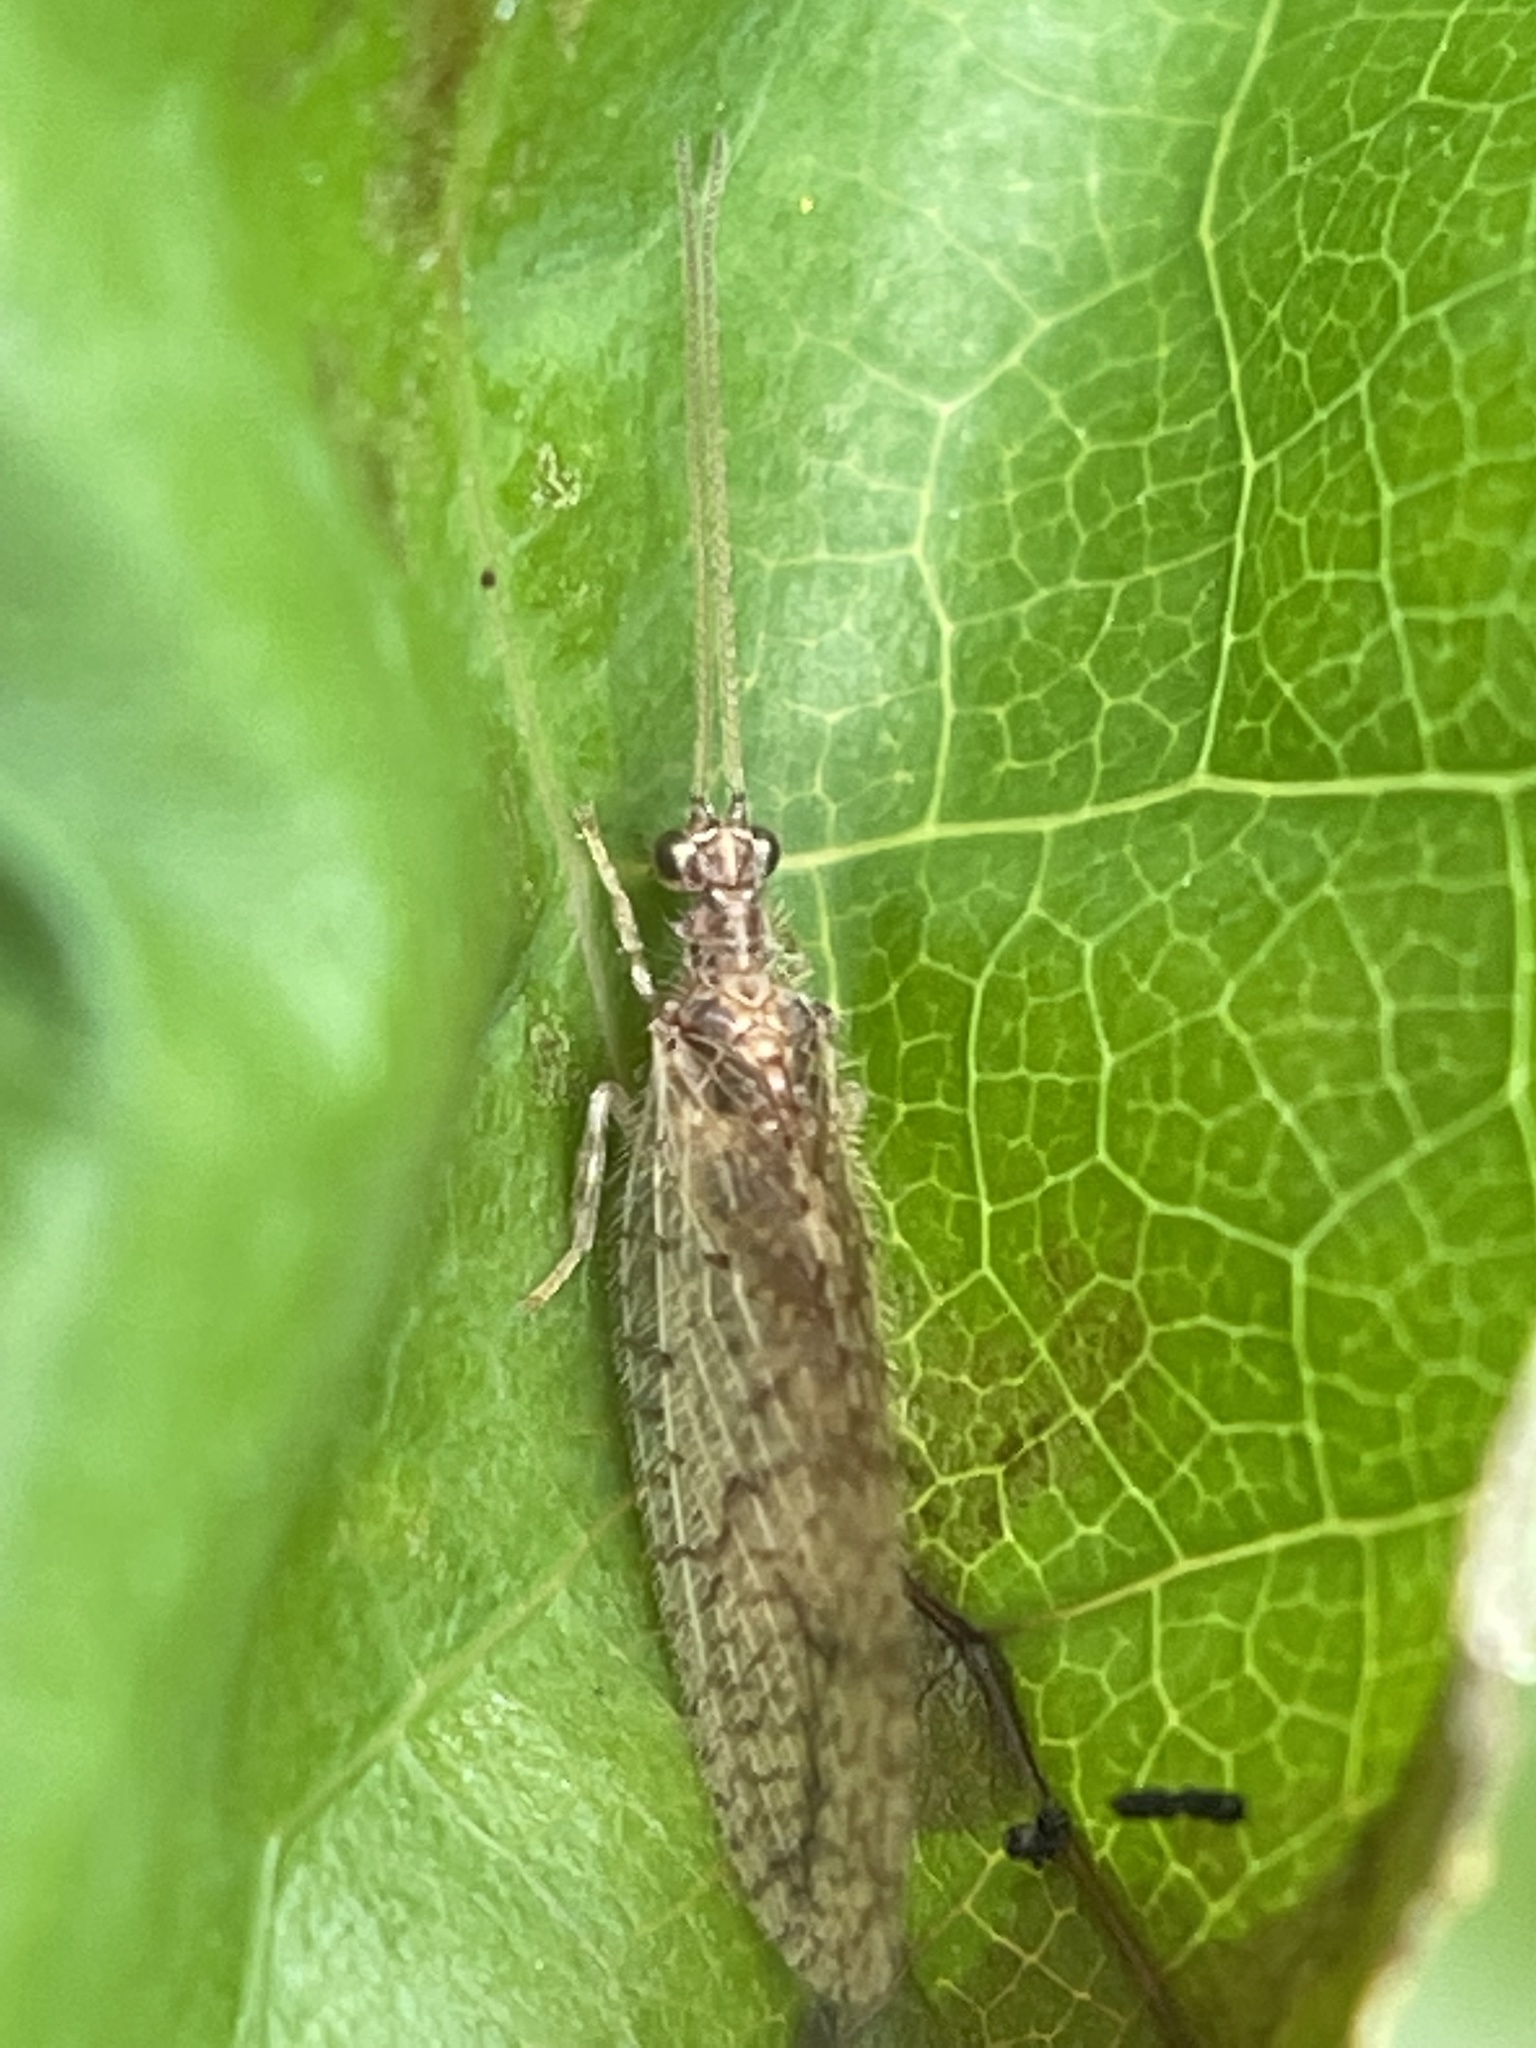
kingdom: Animalia
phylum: Arthropoda
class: Insecta
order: Neuroptera
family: Hemerobiidae
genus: Micromus
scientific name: Micromus posticus
